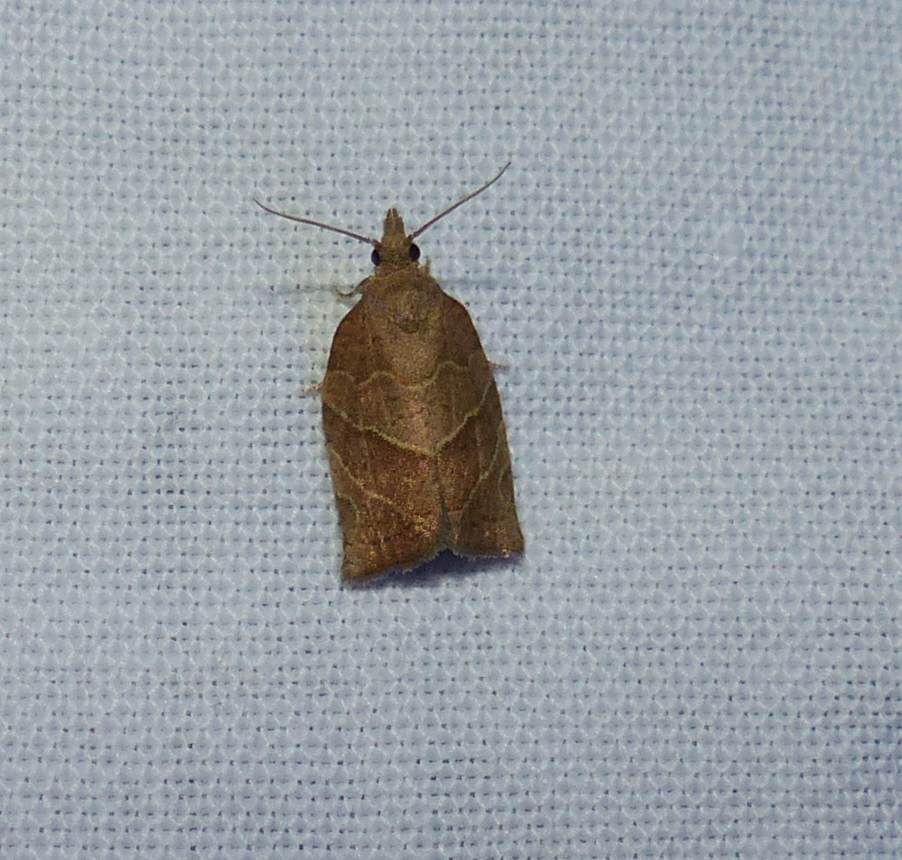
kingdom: Animalia
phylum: Arthropoda
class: Insecta
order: Lepidoptera
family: Tortricidae
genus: Pandemis
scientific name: Pandemis limitata
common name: Three-lined leafroller moth
